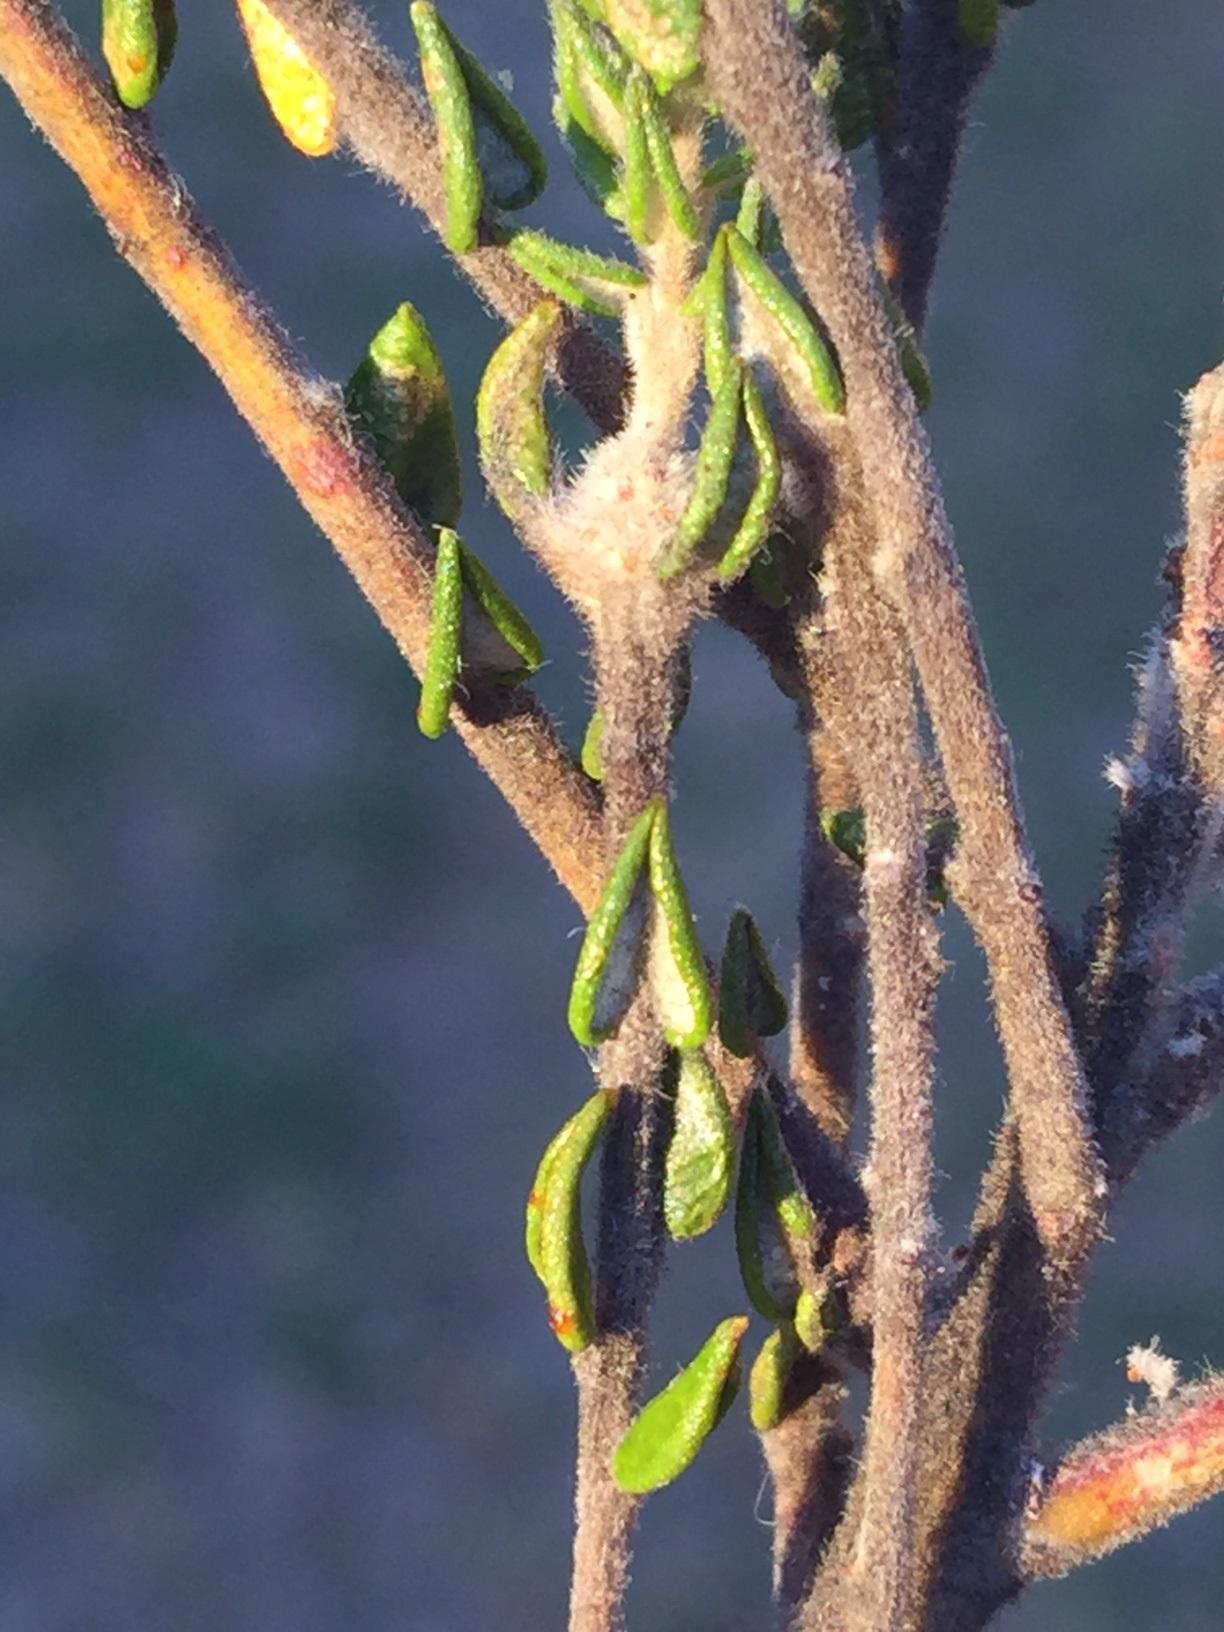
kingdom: Plantae
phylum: Tracheophyta
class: Magnoliopsida
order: Rosales
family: Rhamnaceae
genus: Phylica
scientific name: Phylica debilis
